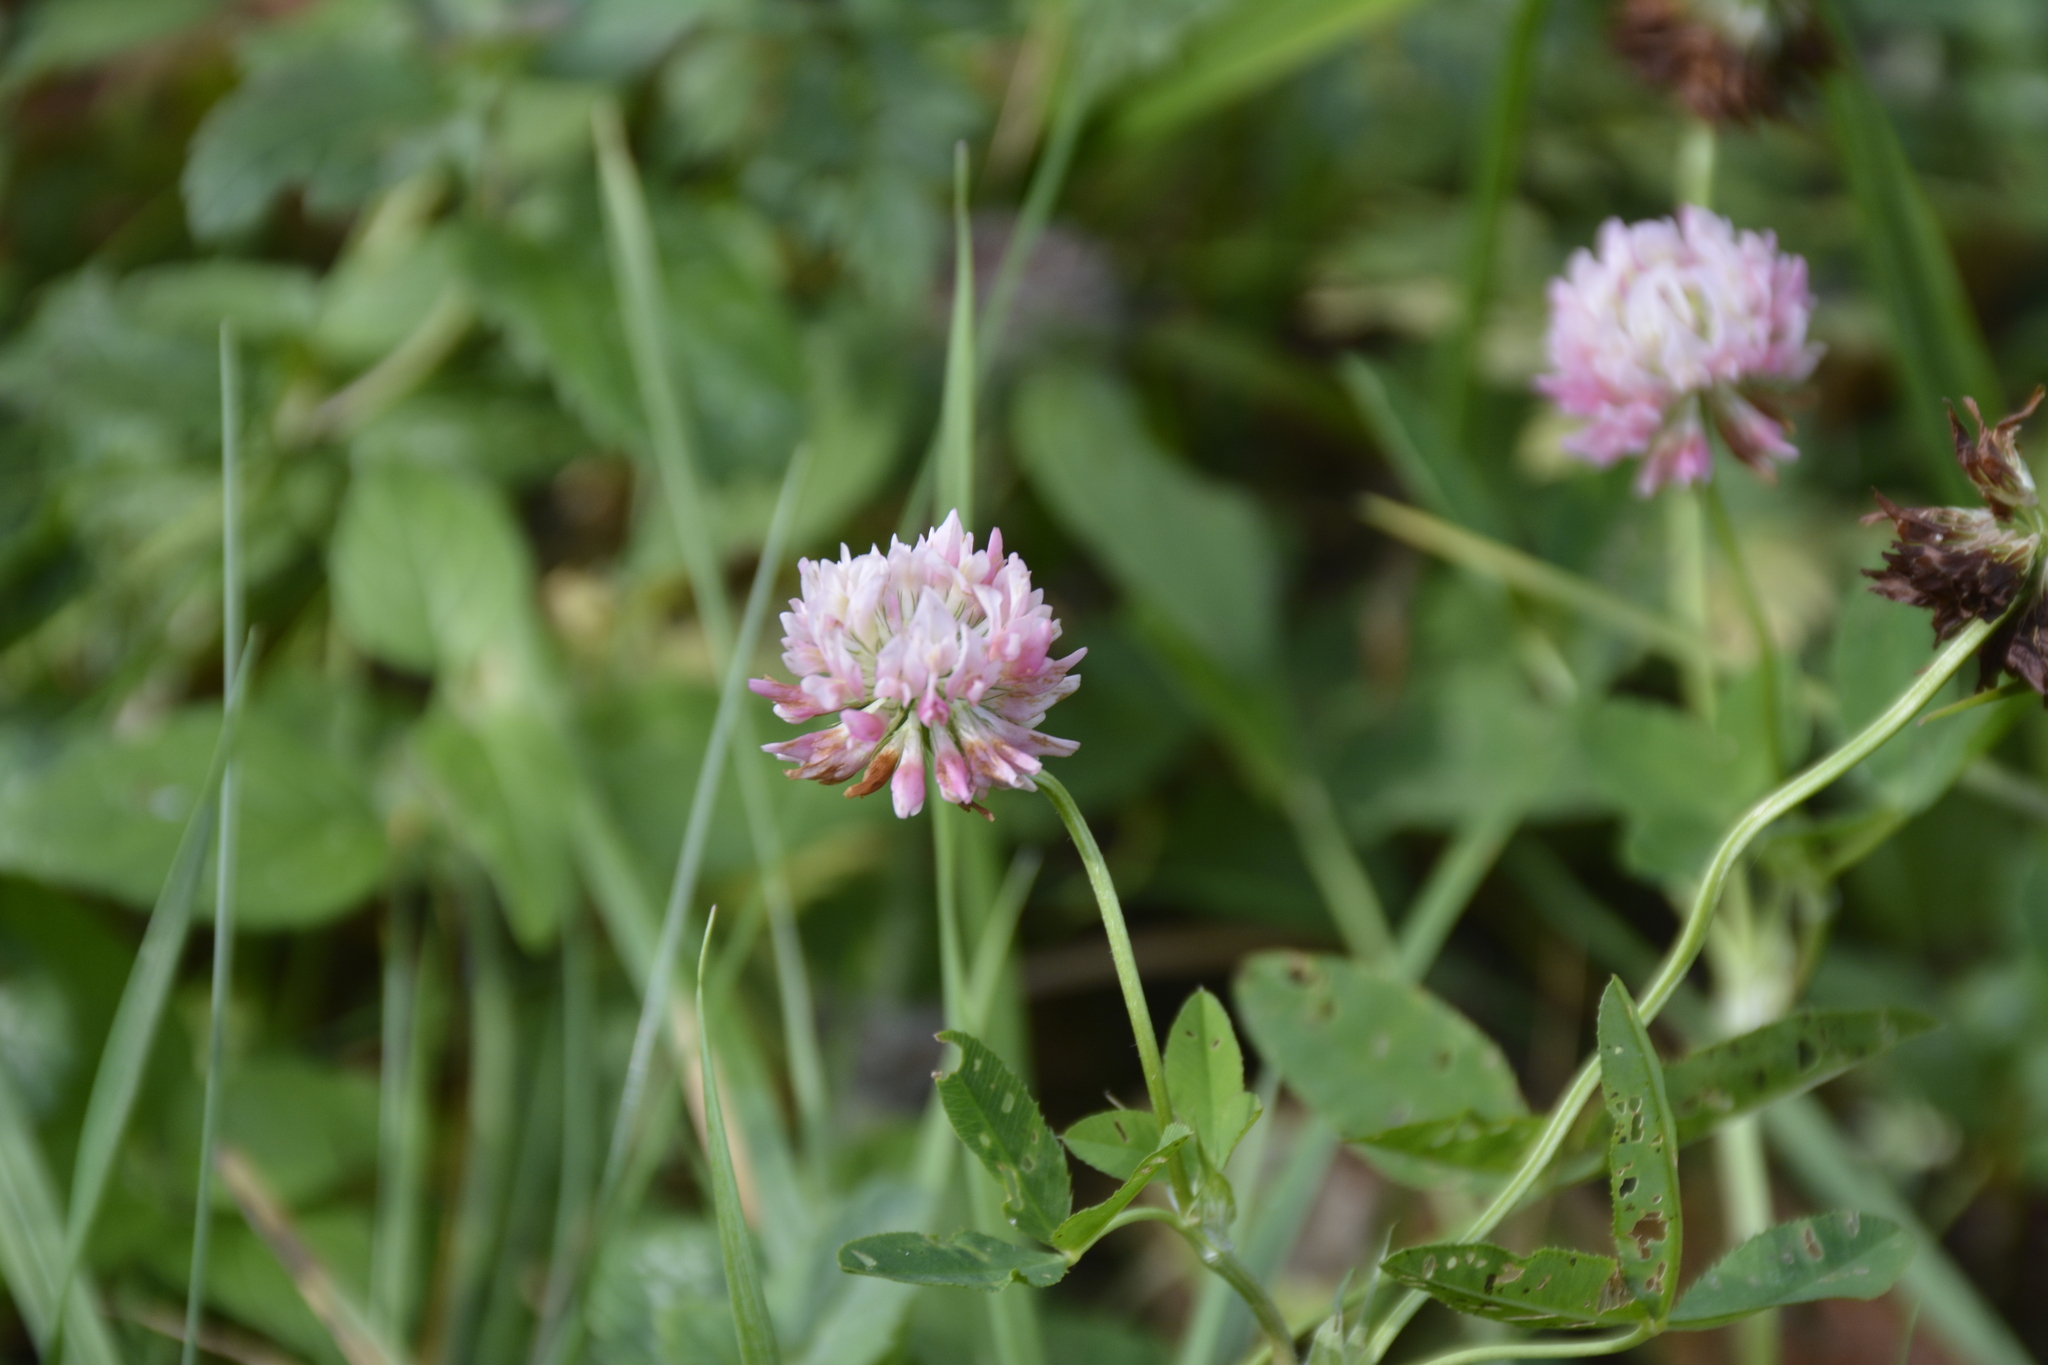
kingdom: Plantae
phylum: Tracheophyta
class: Magnoliopsida
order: Fabales
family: Fabaceae
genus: Trifolium
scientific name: Trifolium hybridum
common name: Alsike clover
